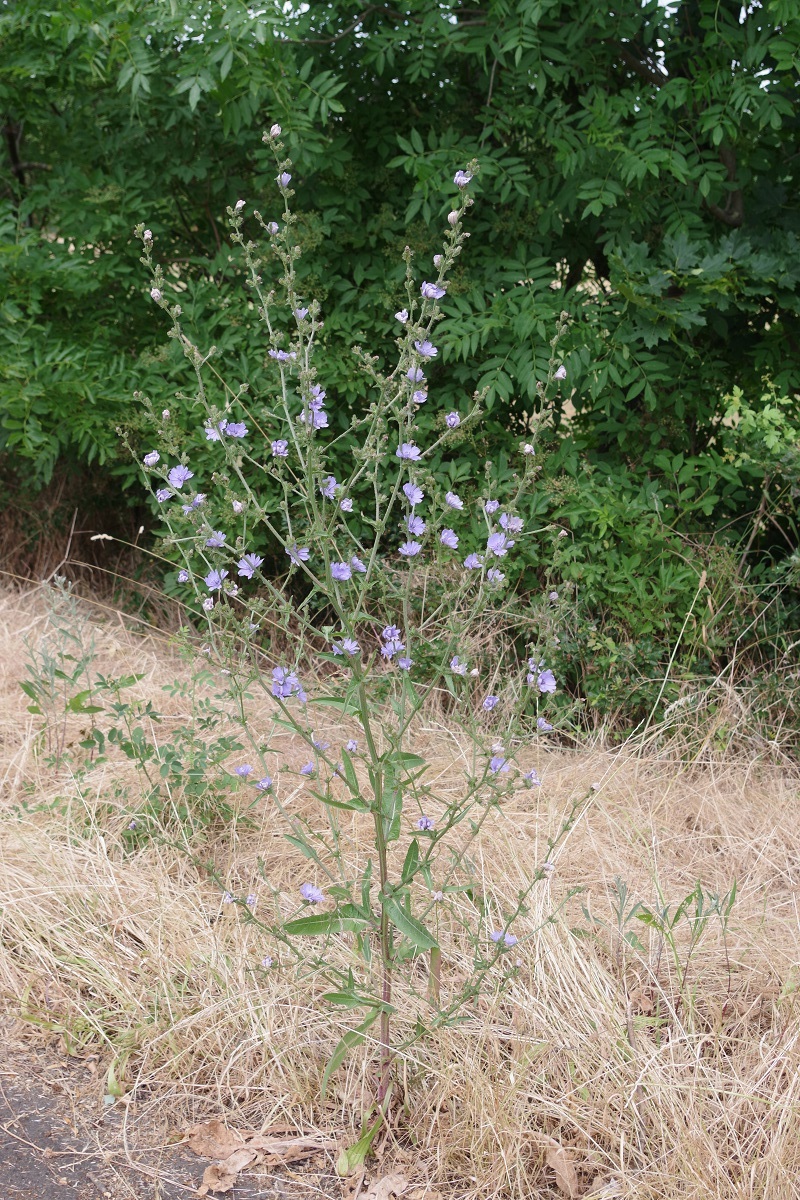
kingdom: Plantae
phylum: Tracheophyta
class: Magnoliopsida
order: Asterales
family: Asteraceae
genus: Cichorium
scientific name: Cichorium intybus
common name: Chicory
